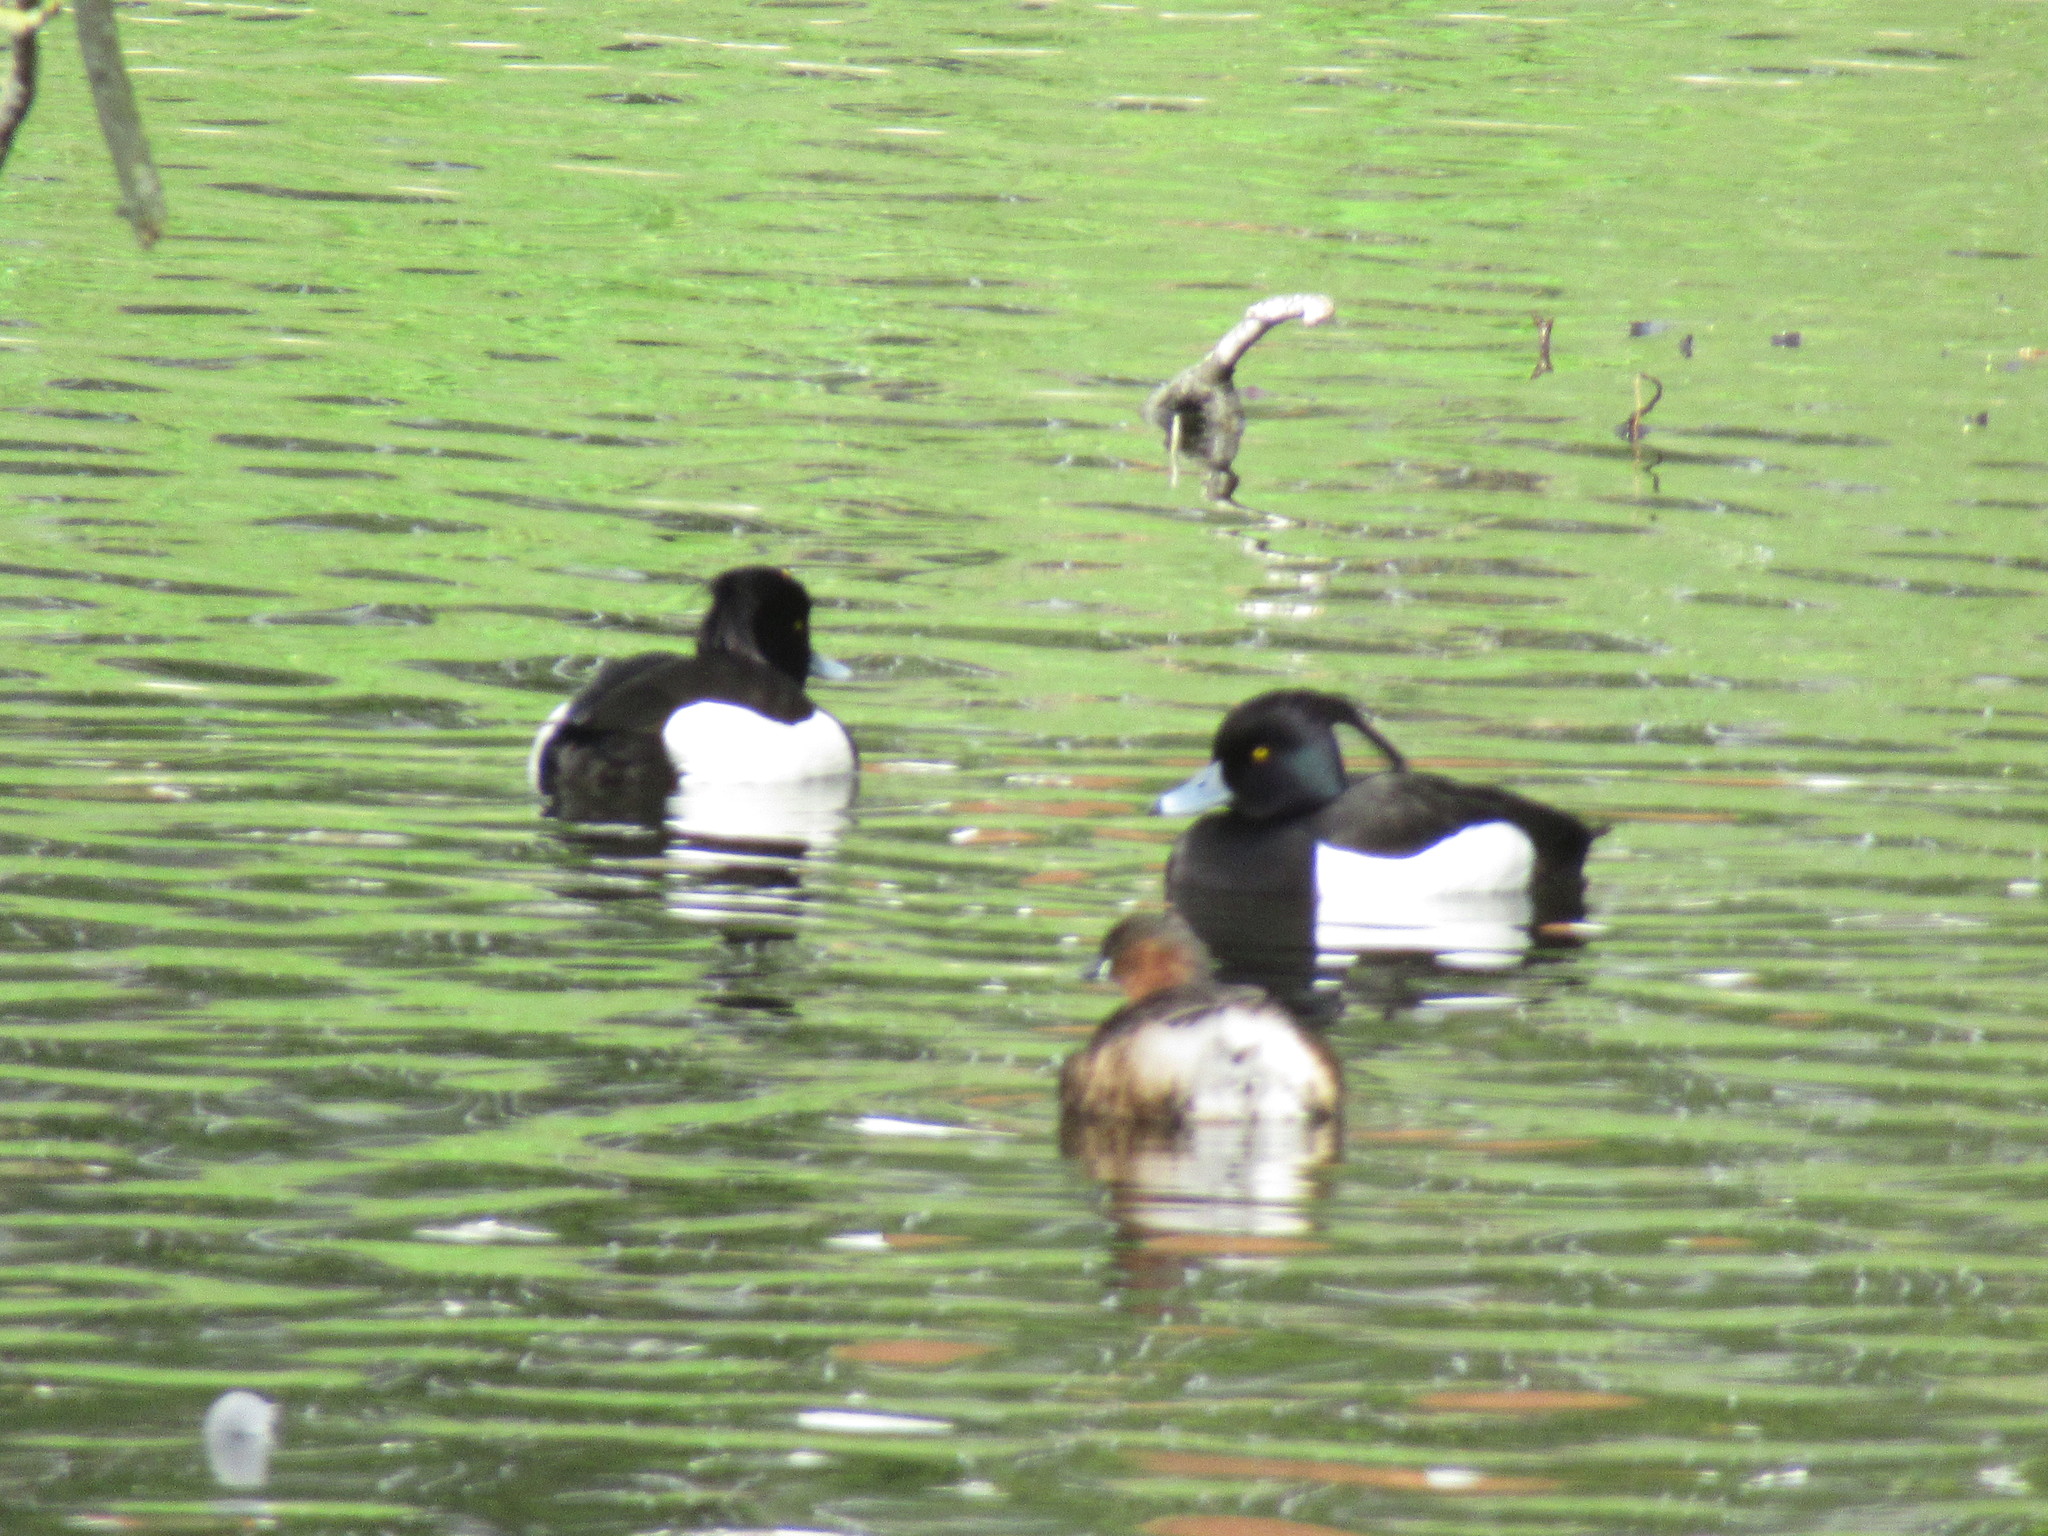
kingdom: Animalia
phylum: Chordata
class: Aves
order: Podicipediformes
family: Podicipedidae
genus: Tachybaptus
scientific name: Tachybaptus ruficollis
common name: Little grebe
